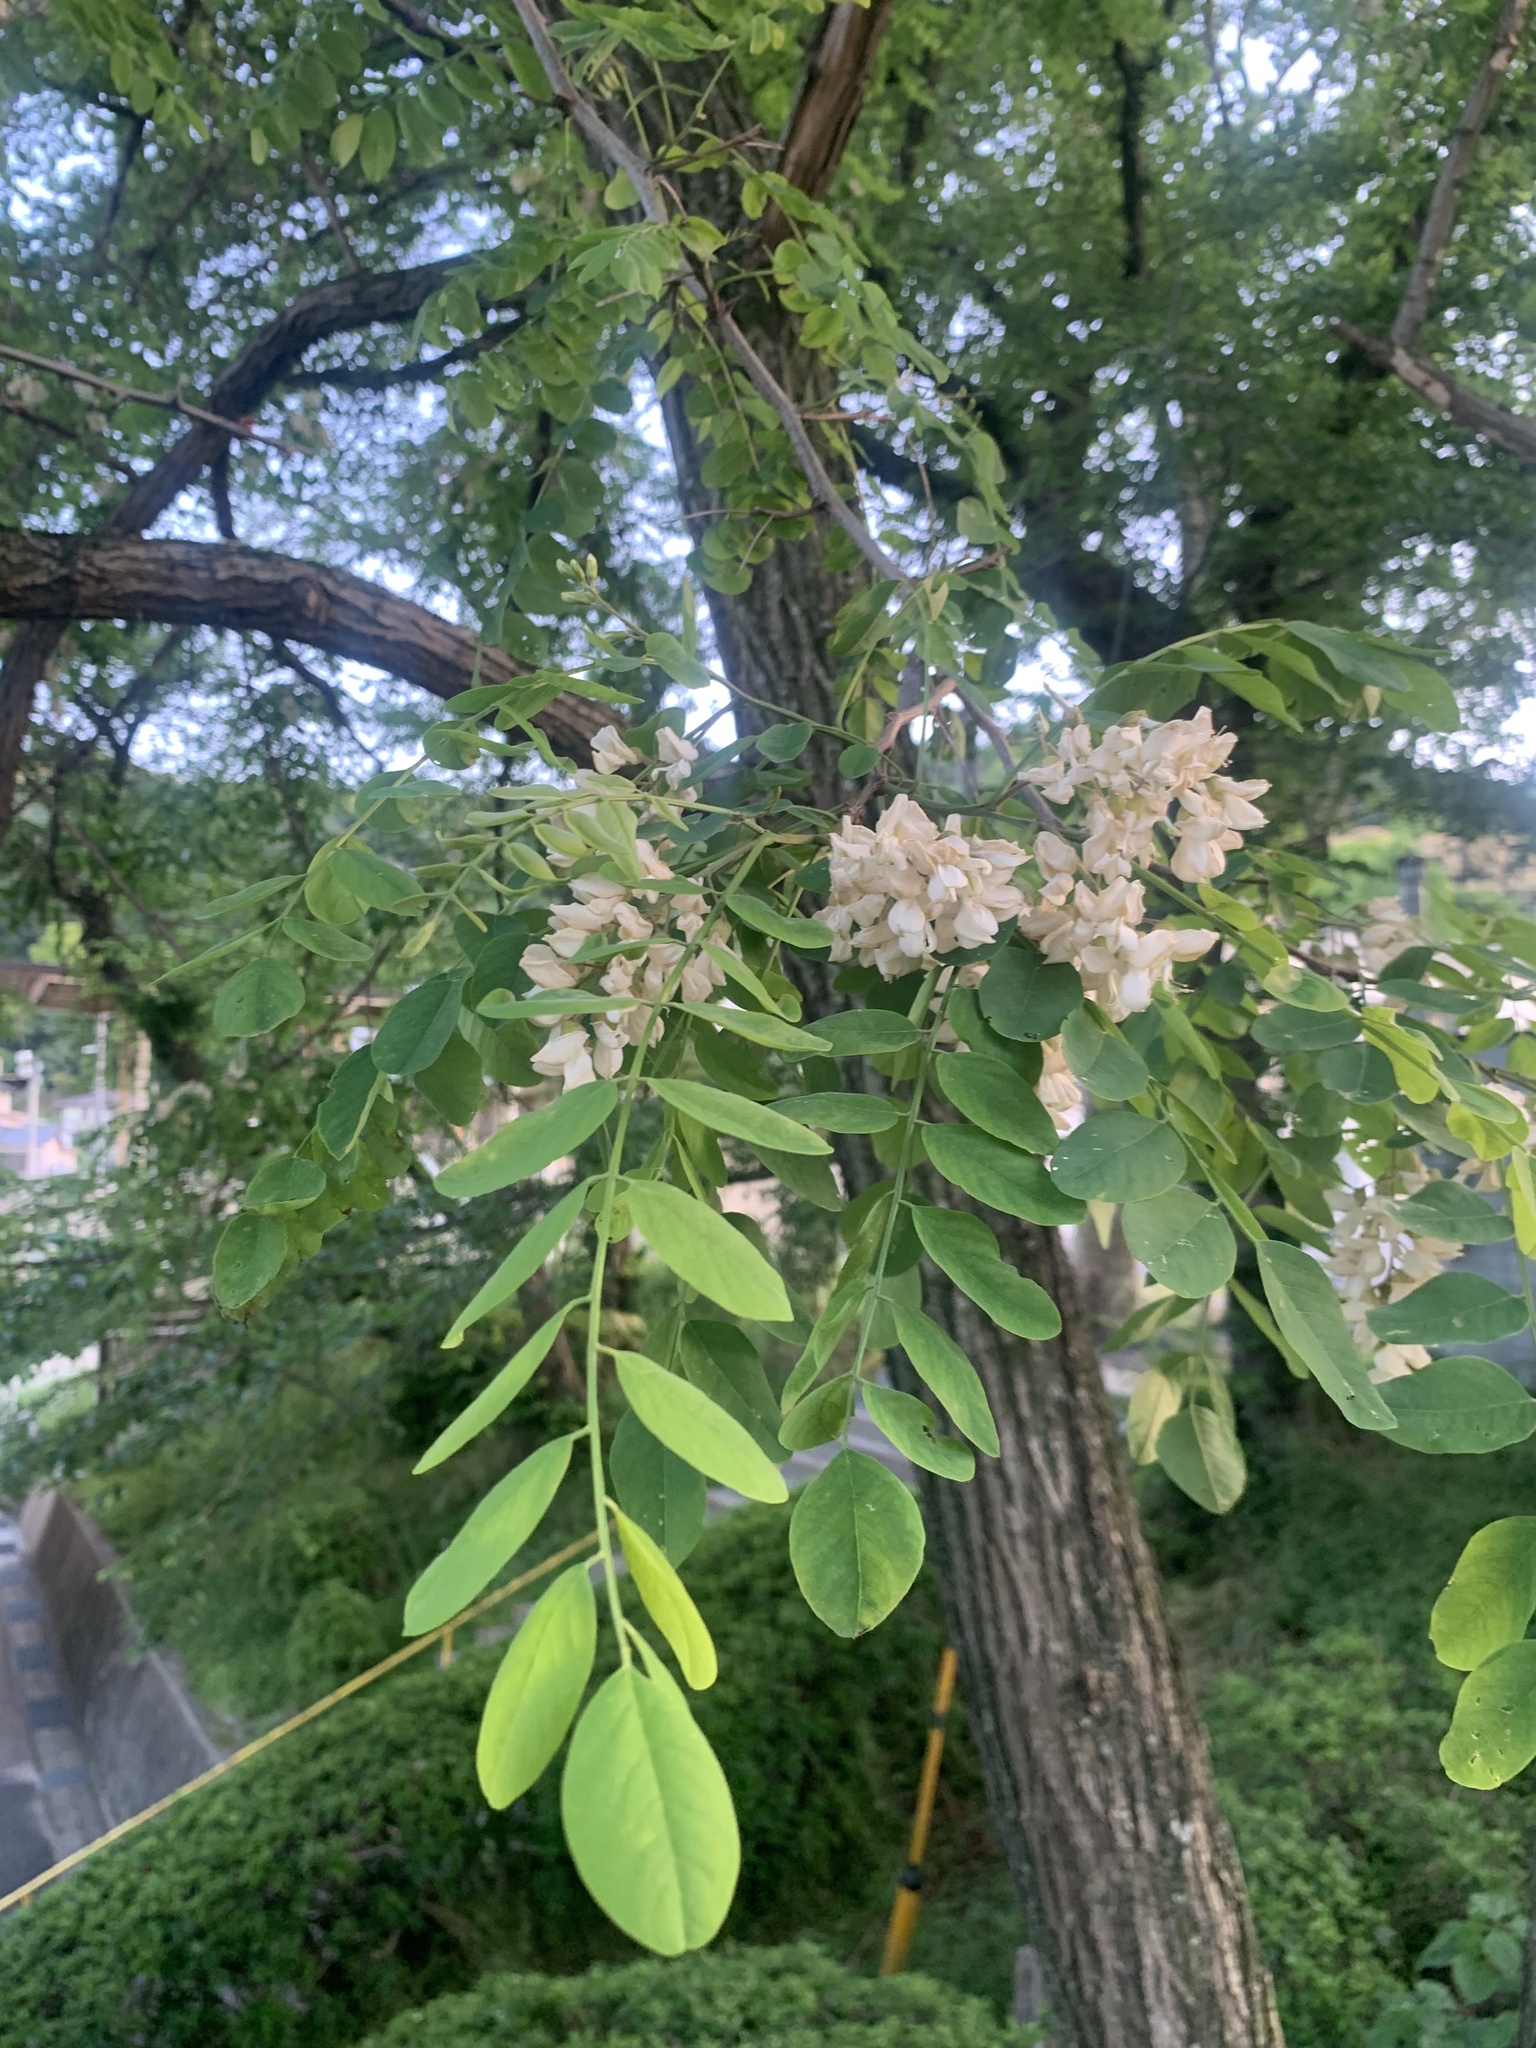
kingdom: Plantae
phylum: Tracheophyta
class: Magnoliopsida
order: Fabales
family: Fabaceae
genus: Robinia
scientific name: Robinia pseudoacacia
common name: Black locust
